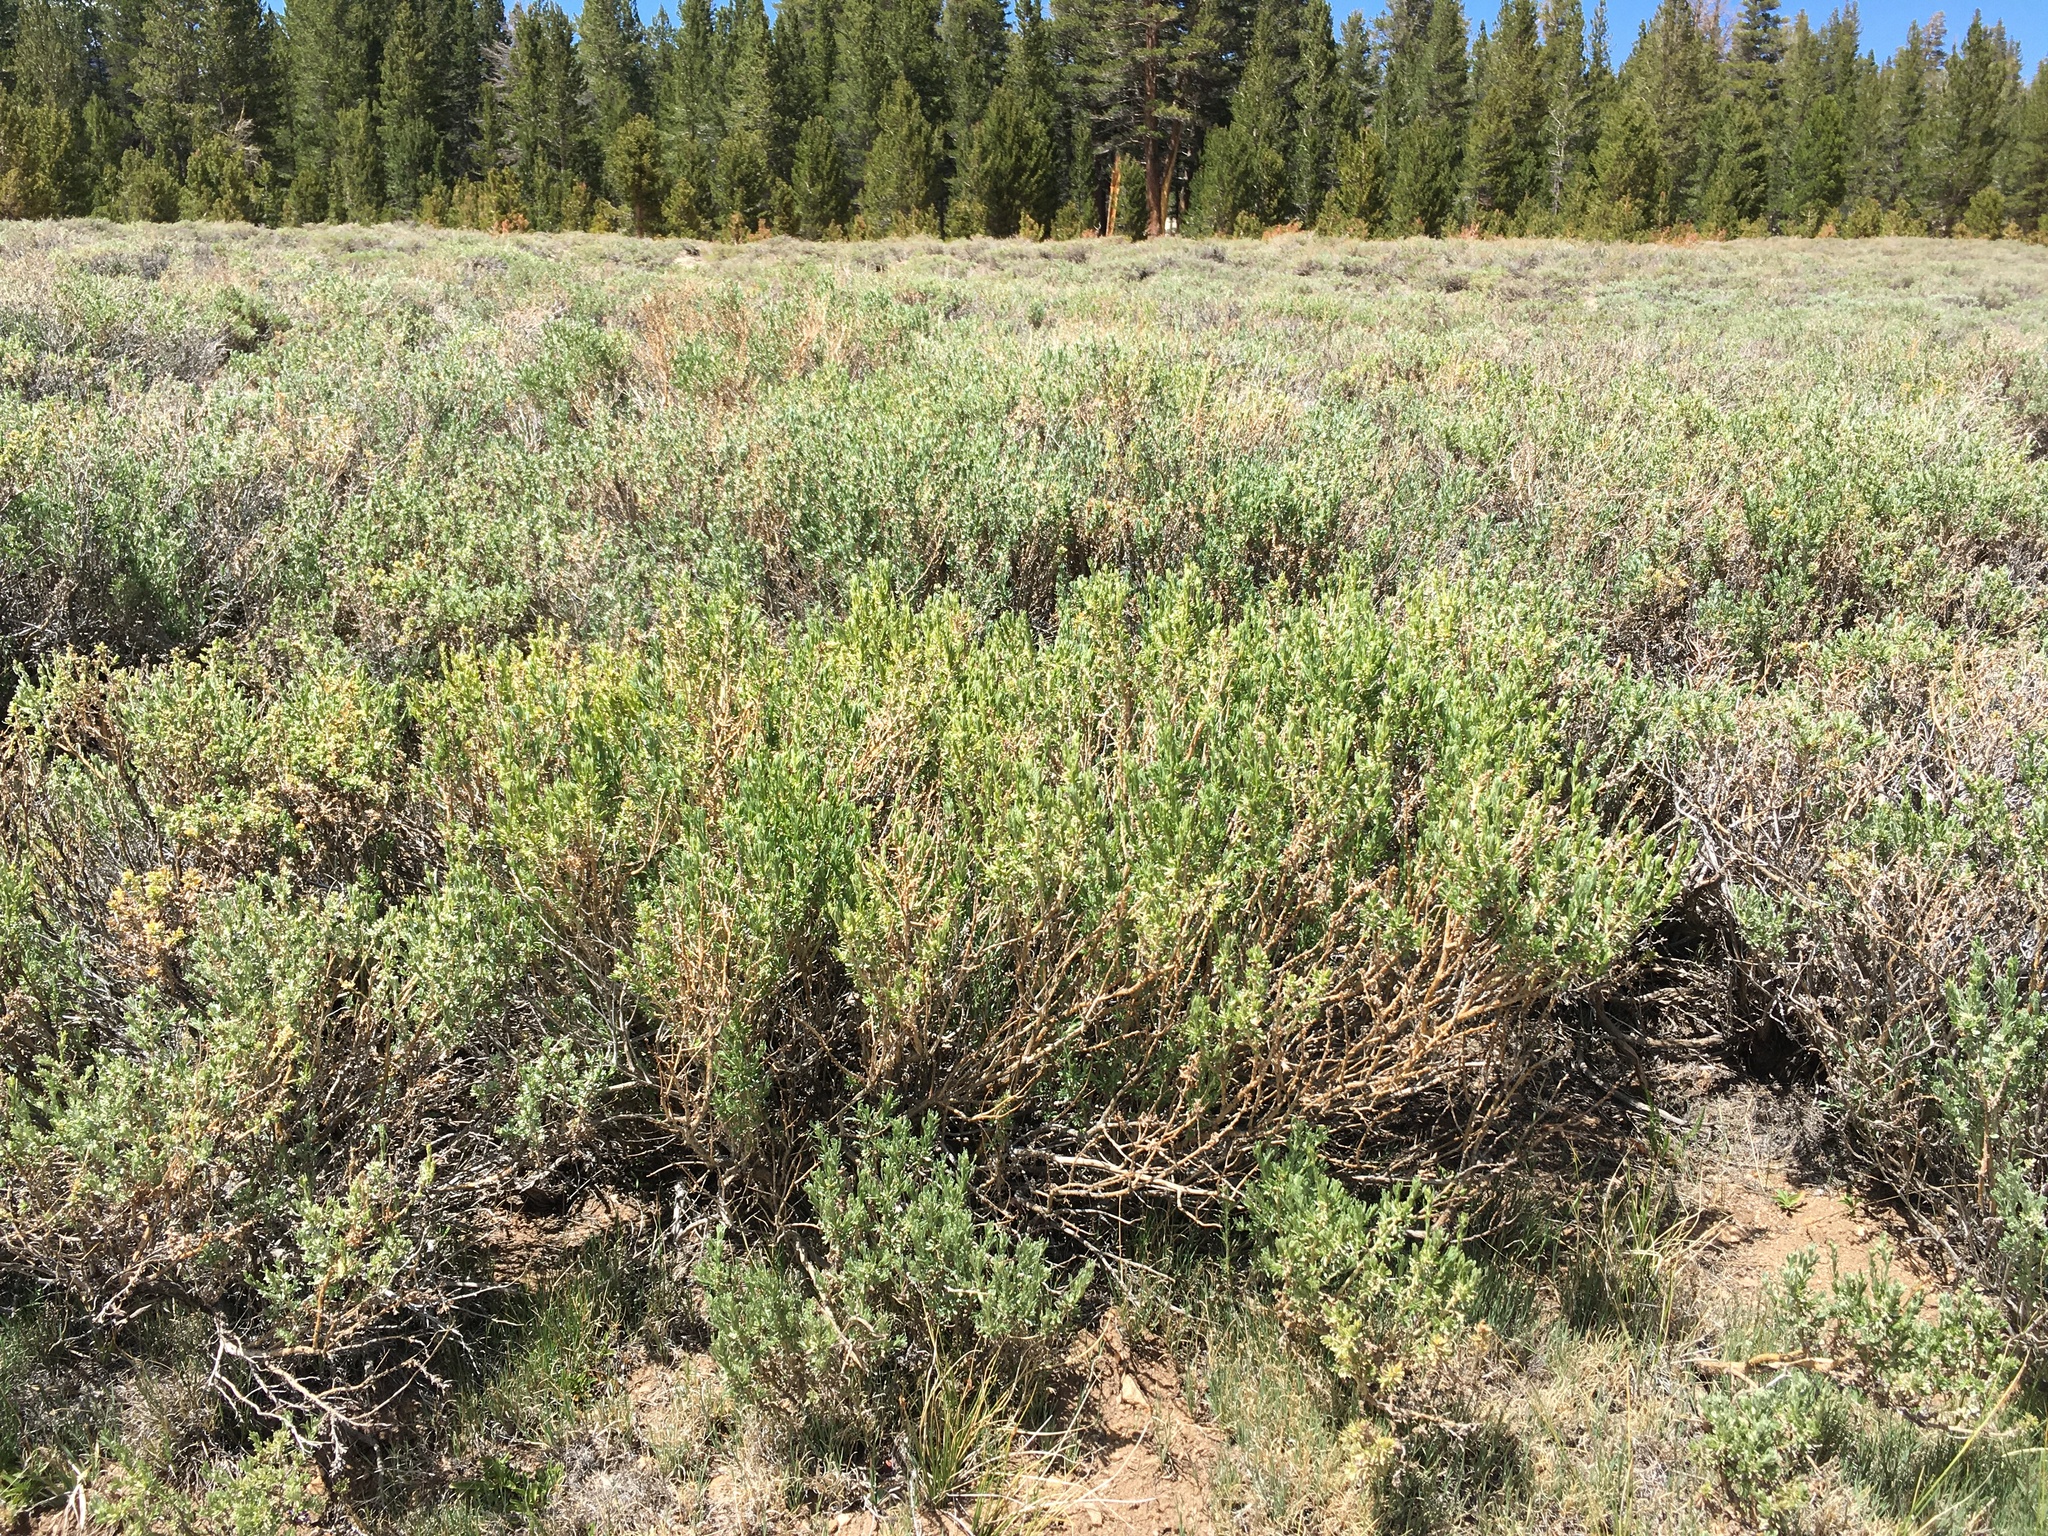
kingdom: Plantae
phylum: Tracheophyta
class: Magnoliopsida
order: Asterales
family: Asteraceae
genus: Artemisia
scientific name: Artemisia rothrockii
